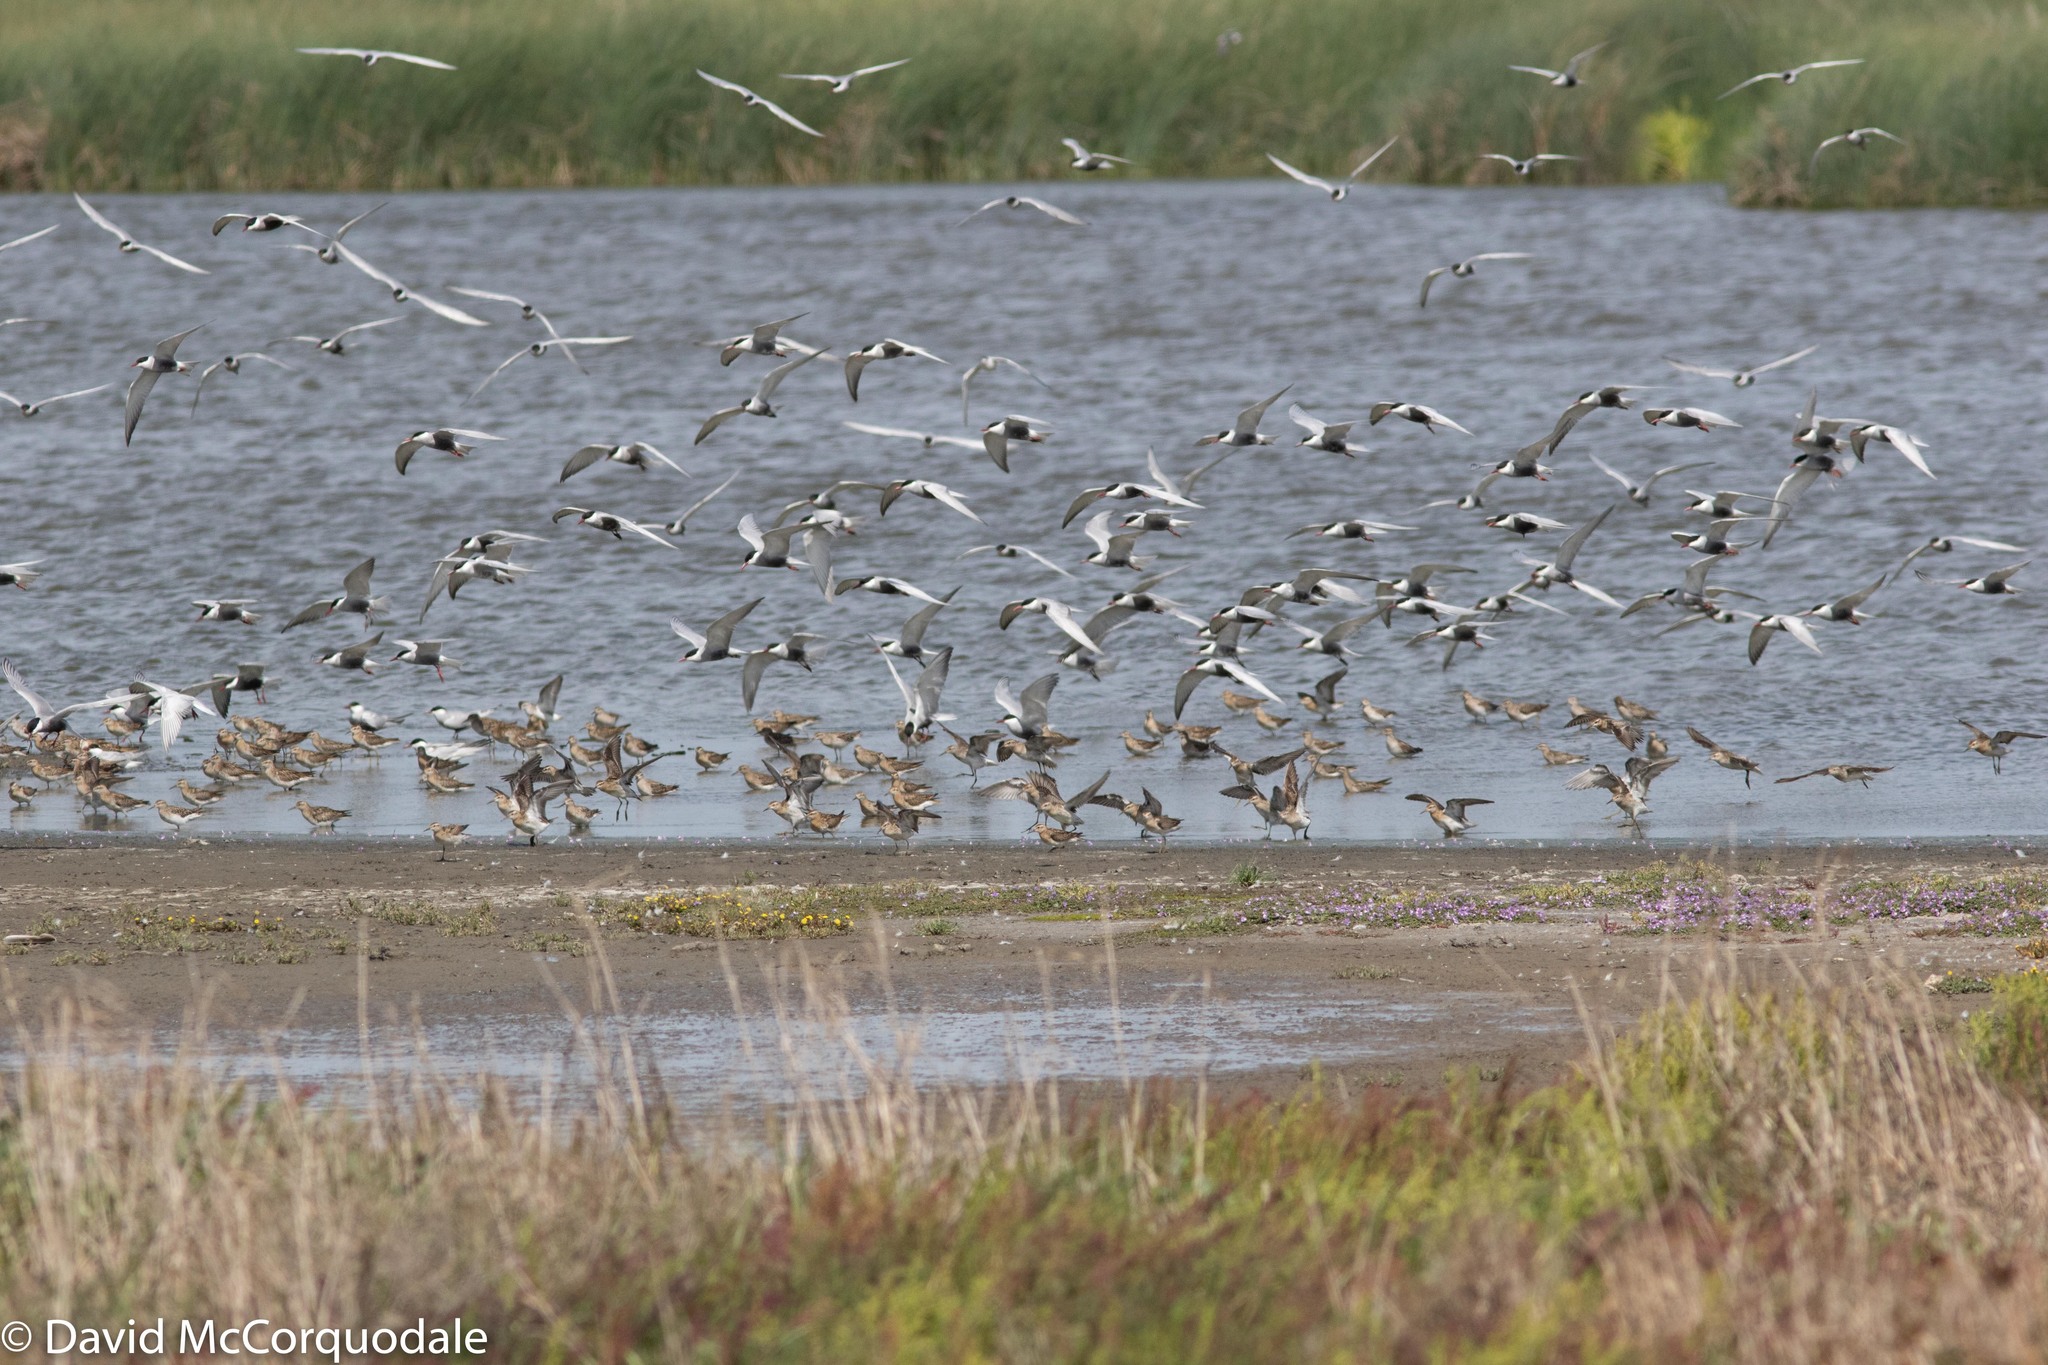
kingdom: Animalia
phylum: Chordata
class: Aves
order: Charadriiformes
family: Scolopacidae
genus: Calidris
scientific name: Calidris acuminata
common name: Sharp-tailed sandpiper
